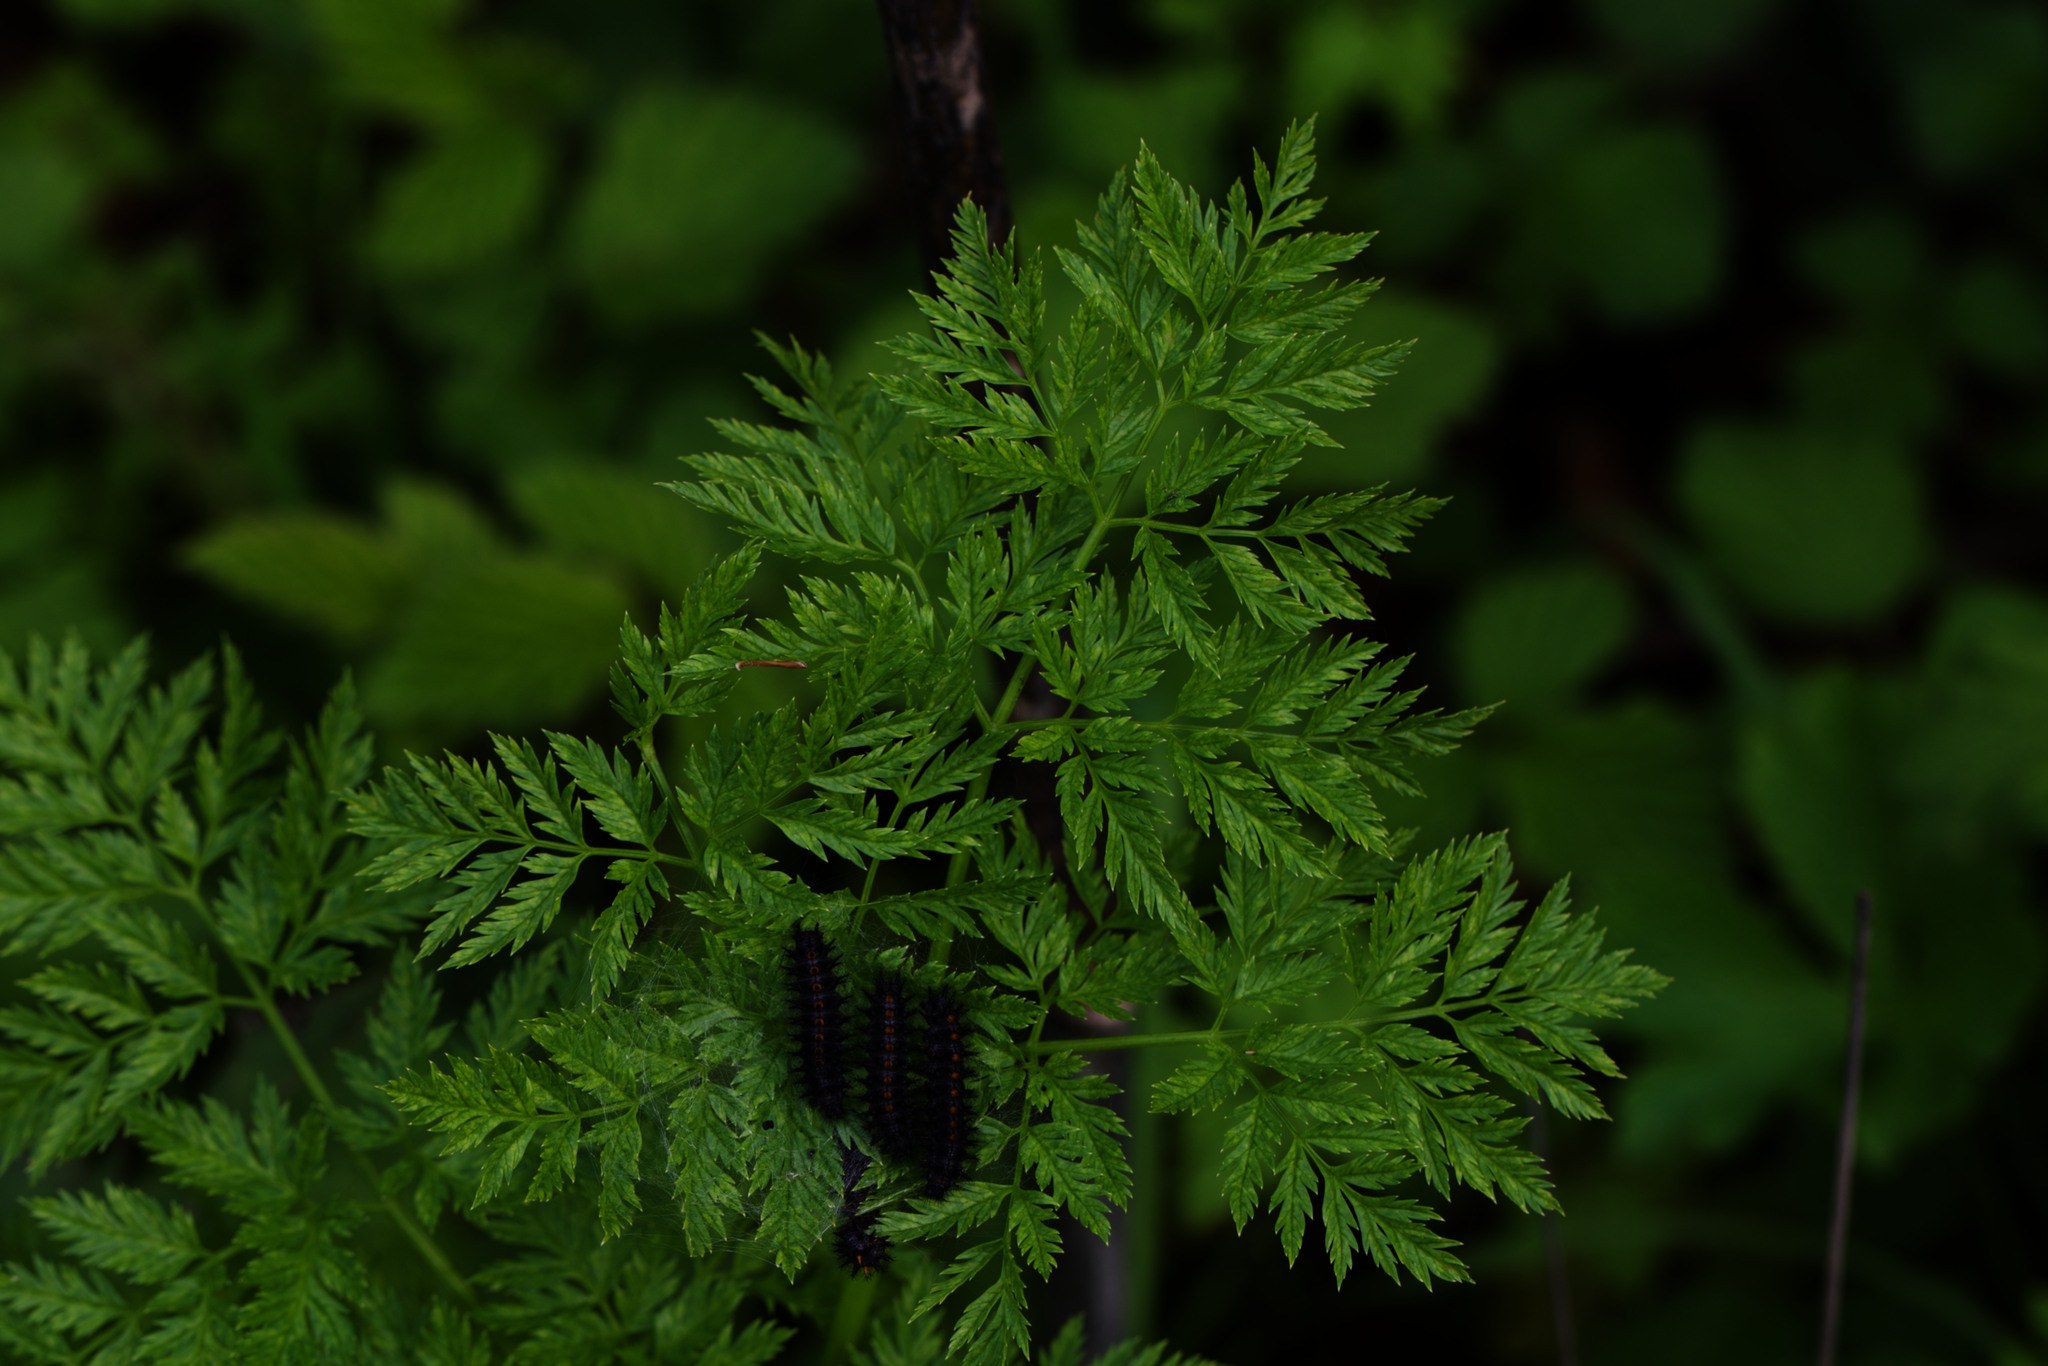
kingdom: Plantae
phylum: Tracheophyta
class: Magnoliopsida
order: Apiales
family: Apiaceae
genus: Conium
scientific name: Conium maculatum
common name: Hemlock
